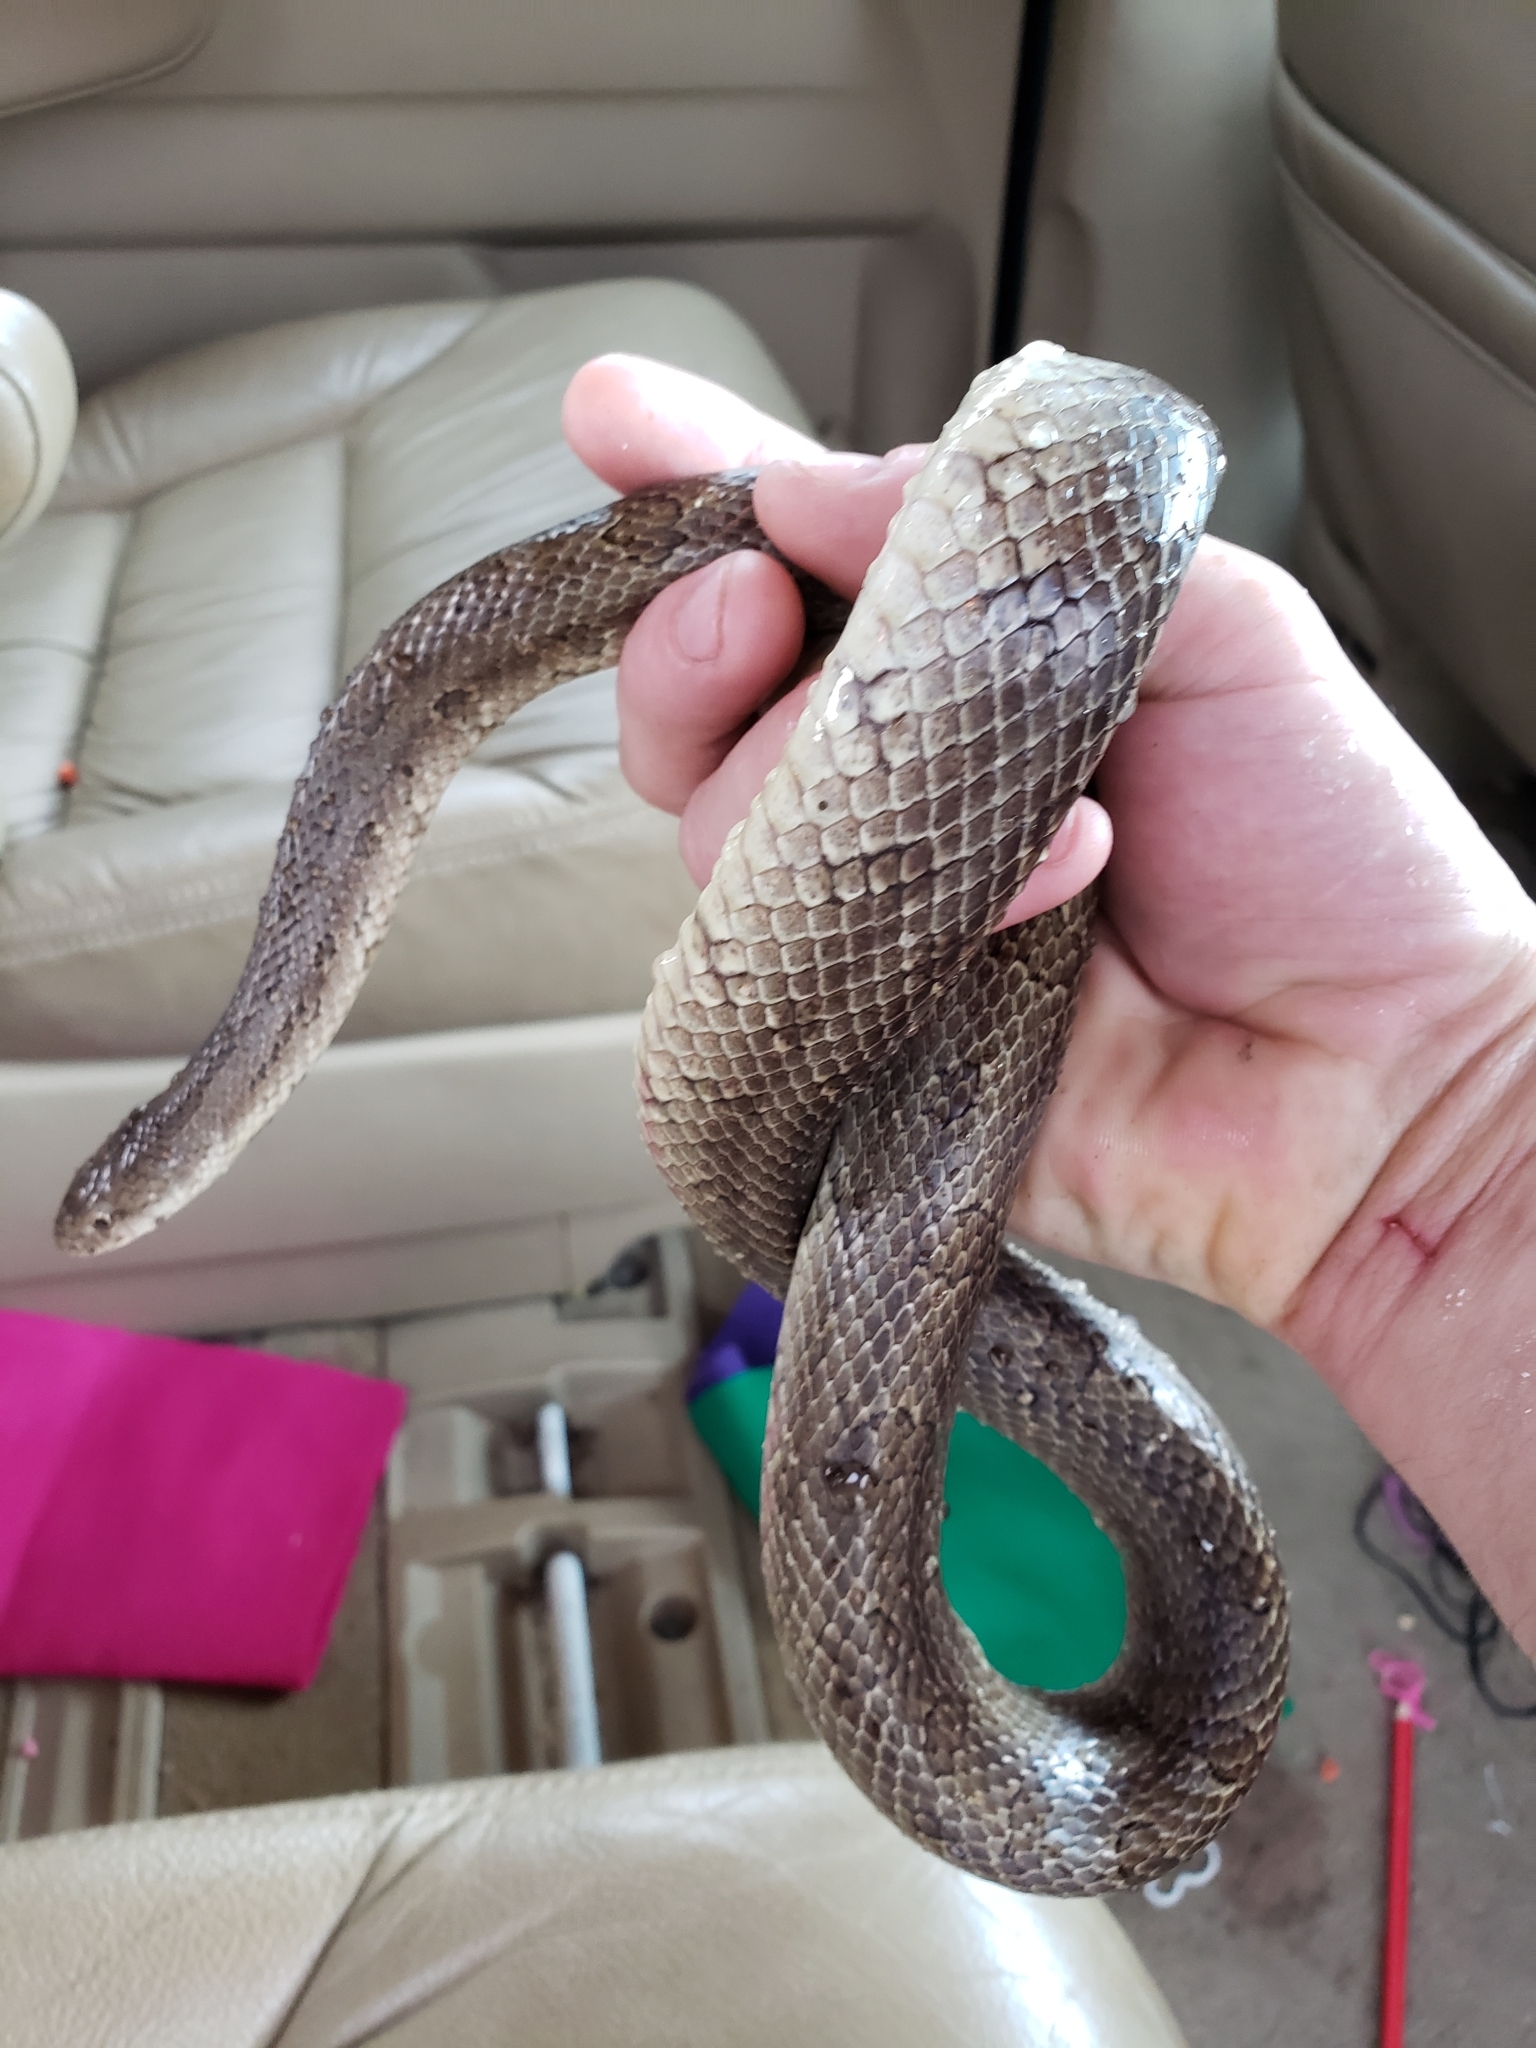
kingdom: Animalia
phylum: Chordata
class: Squamata
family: Colubridae
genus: Lampropeltis
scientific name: Lampropeltis calligaster
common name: Prairie kingsnake
